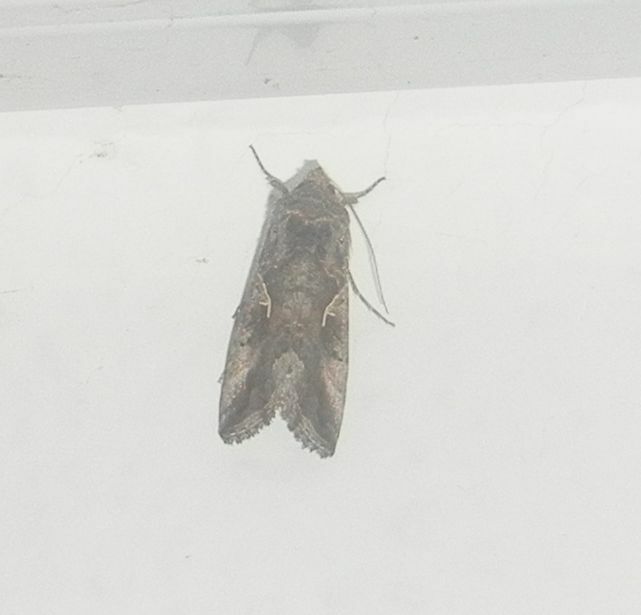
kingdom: Animalia
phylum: Arthropoda
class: Insecta
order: Lepidoptera
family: Noctuidae
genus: Autographa
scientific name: Autographa gamma
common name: Silver y
